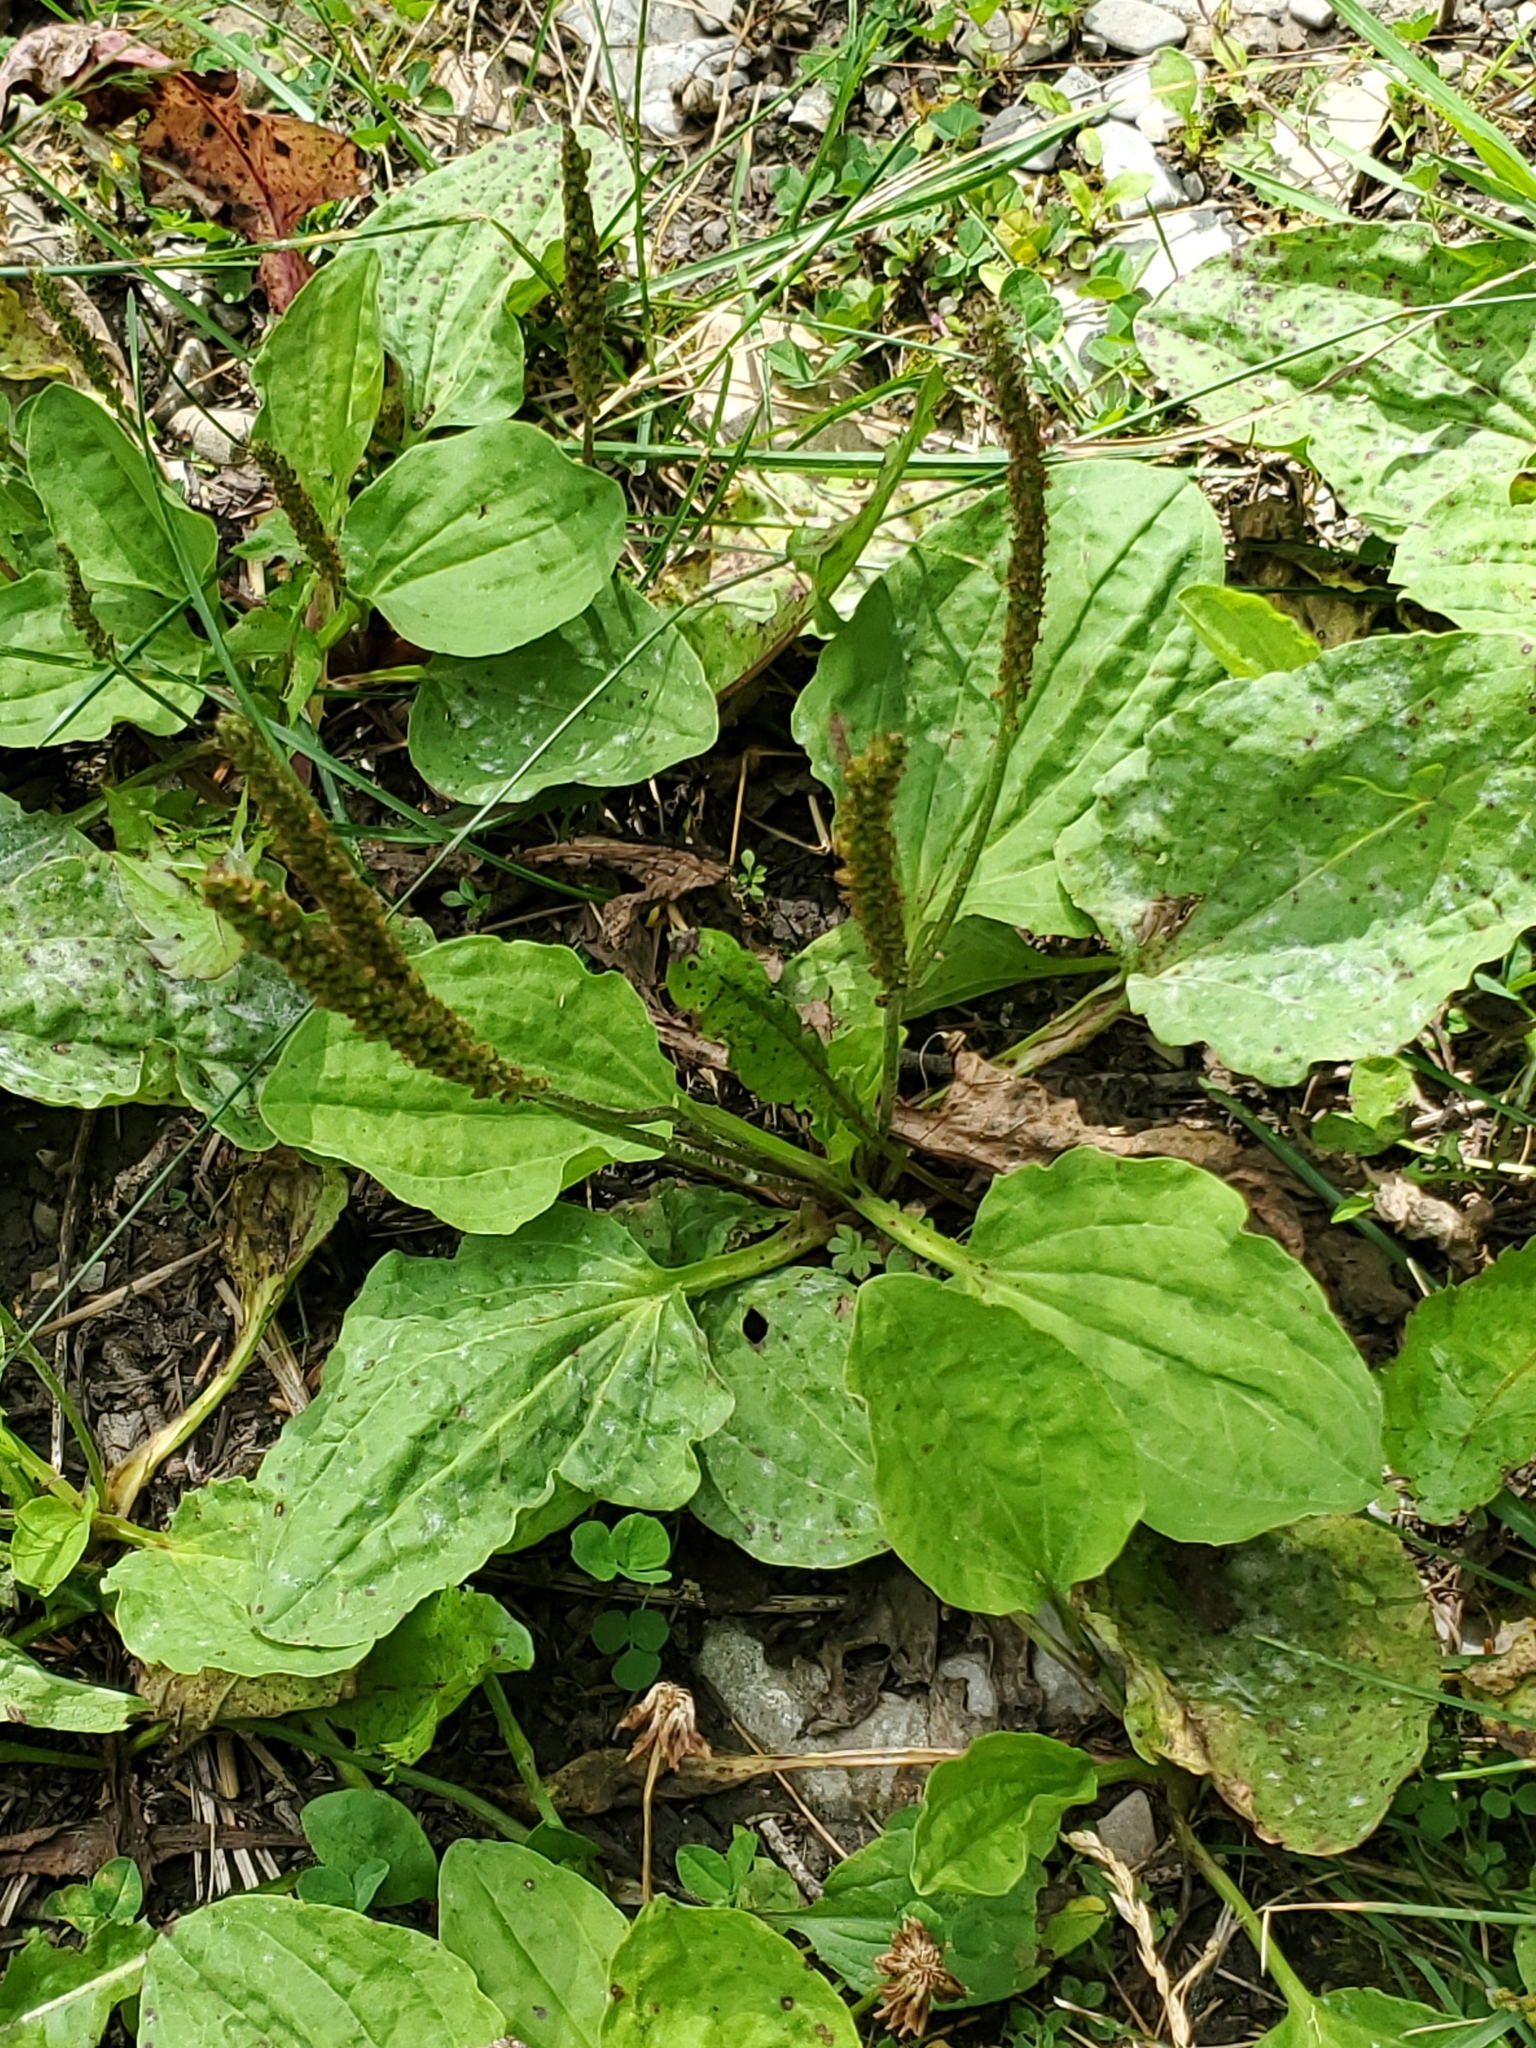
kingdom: Plantae
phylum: Tracheophyta
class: Magnoliopsida
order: Lamiales
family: Plantaginaceae
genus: Plantago
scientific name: Plantago major
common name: Common plantain
